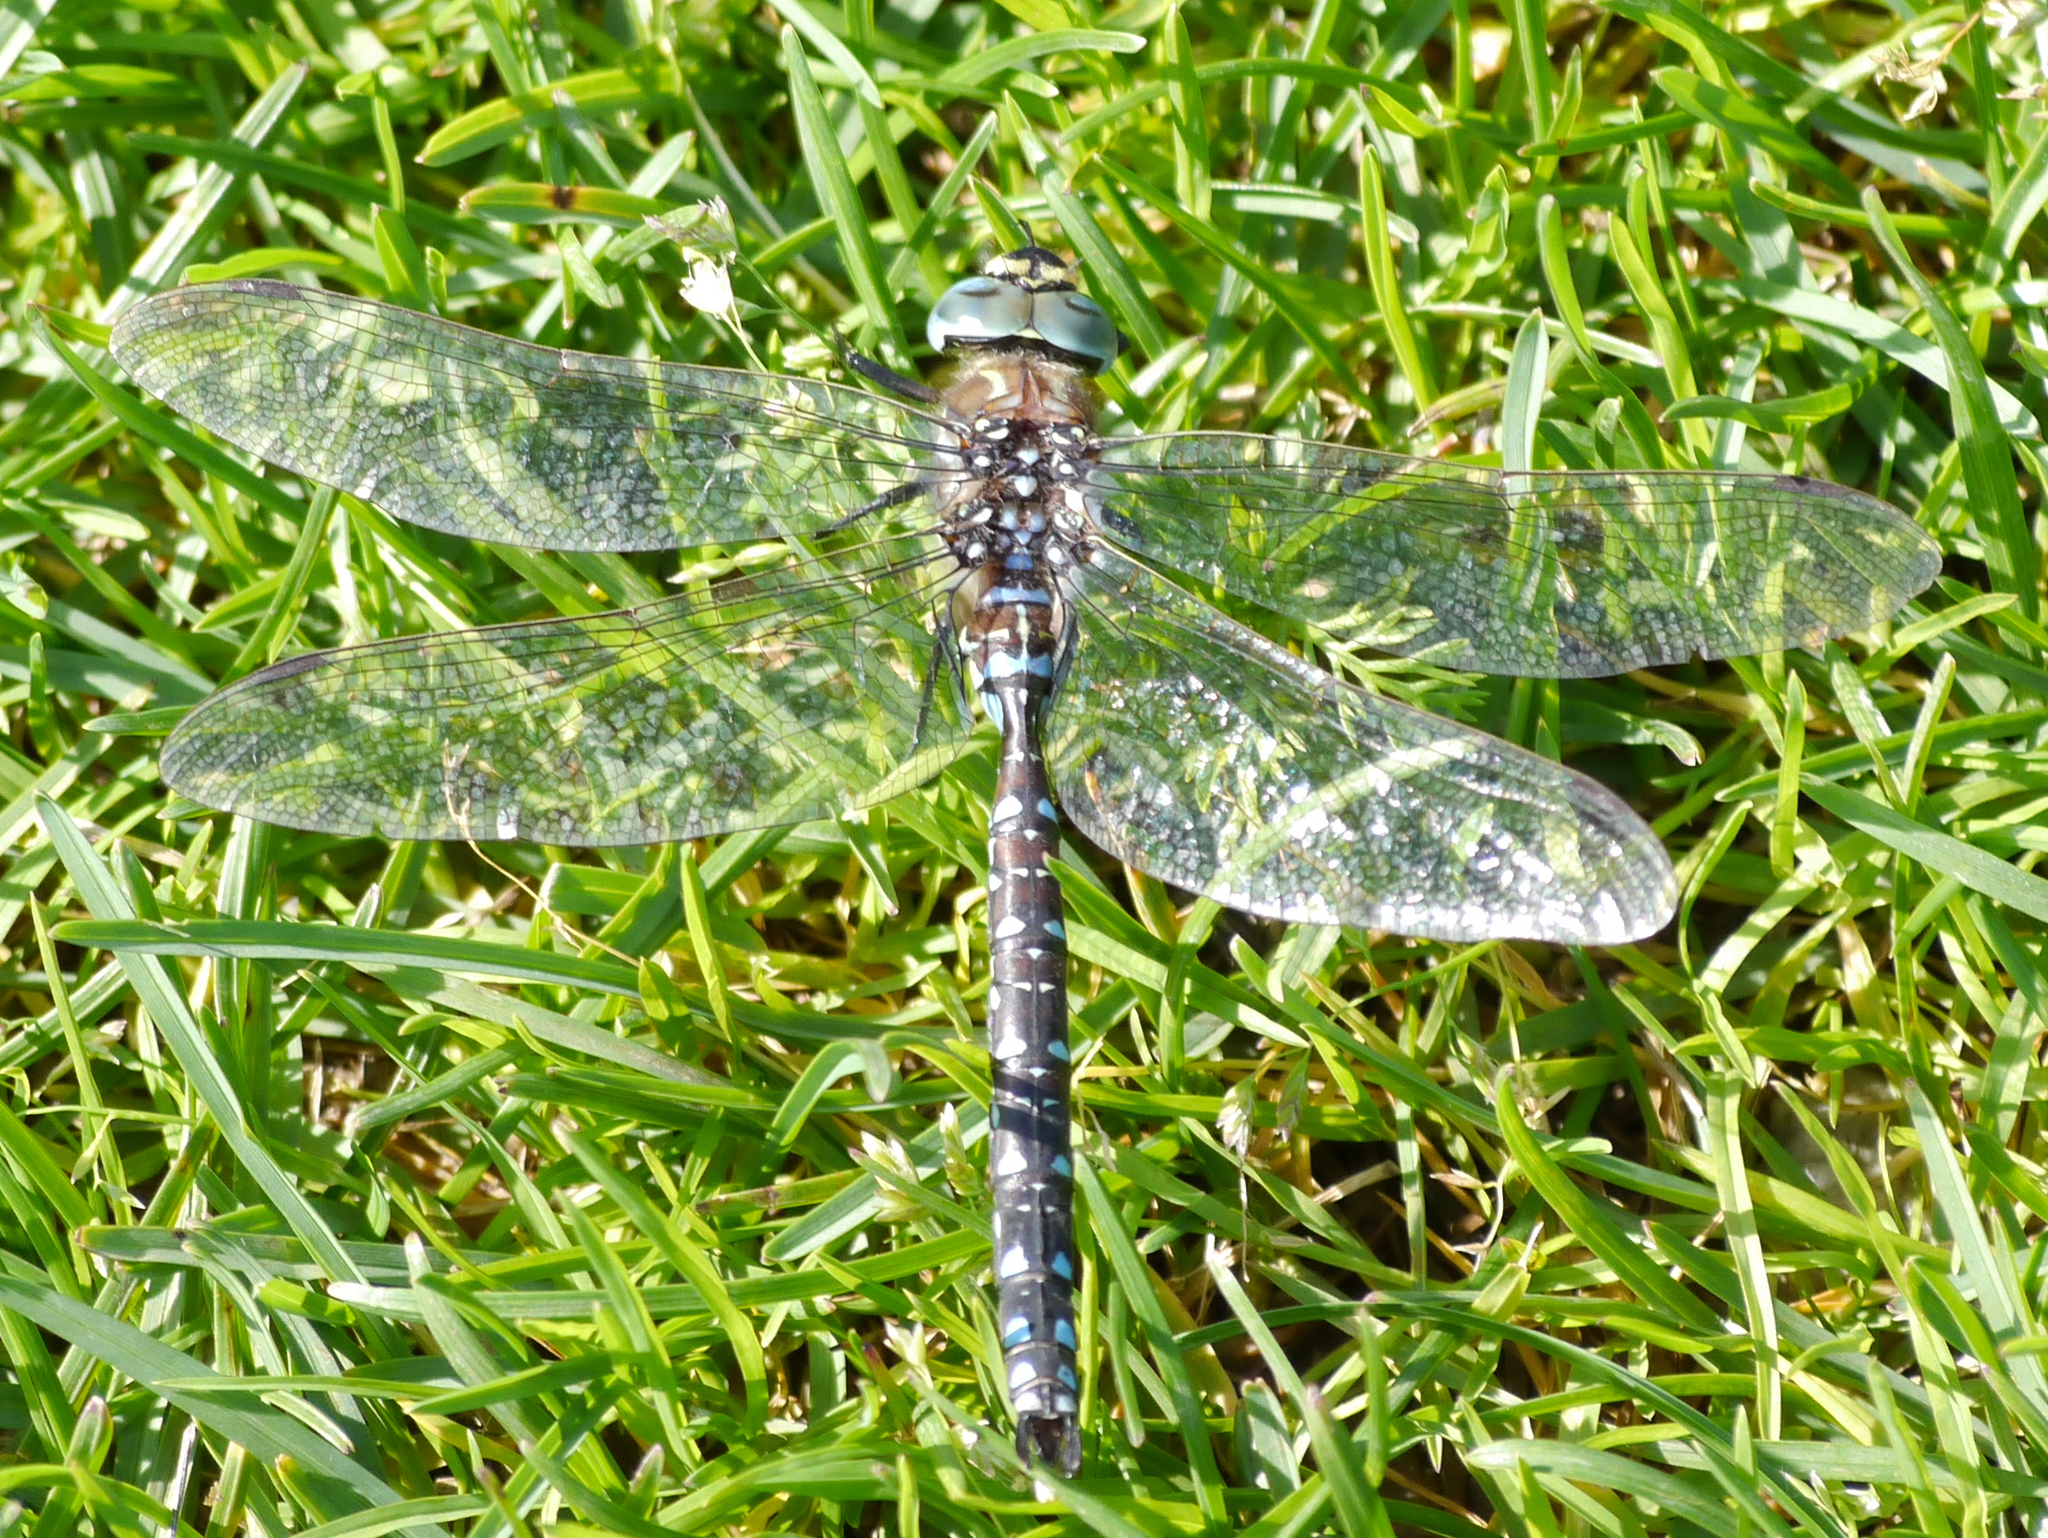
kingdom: Animalia
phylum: Arthropoda
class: Insecta
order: Odonata
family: Aeshnidae
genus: Aeshna
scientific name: Aeshna juncea
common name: Moorland hawker
